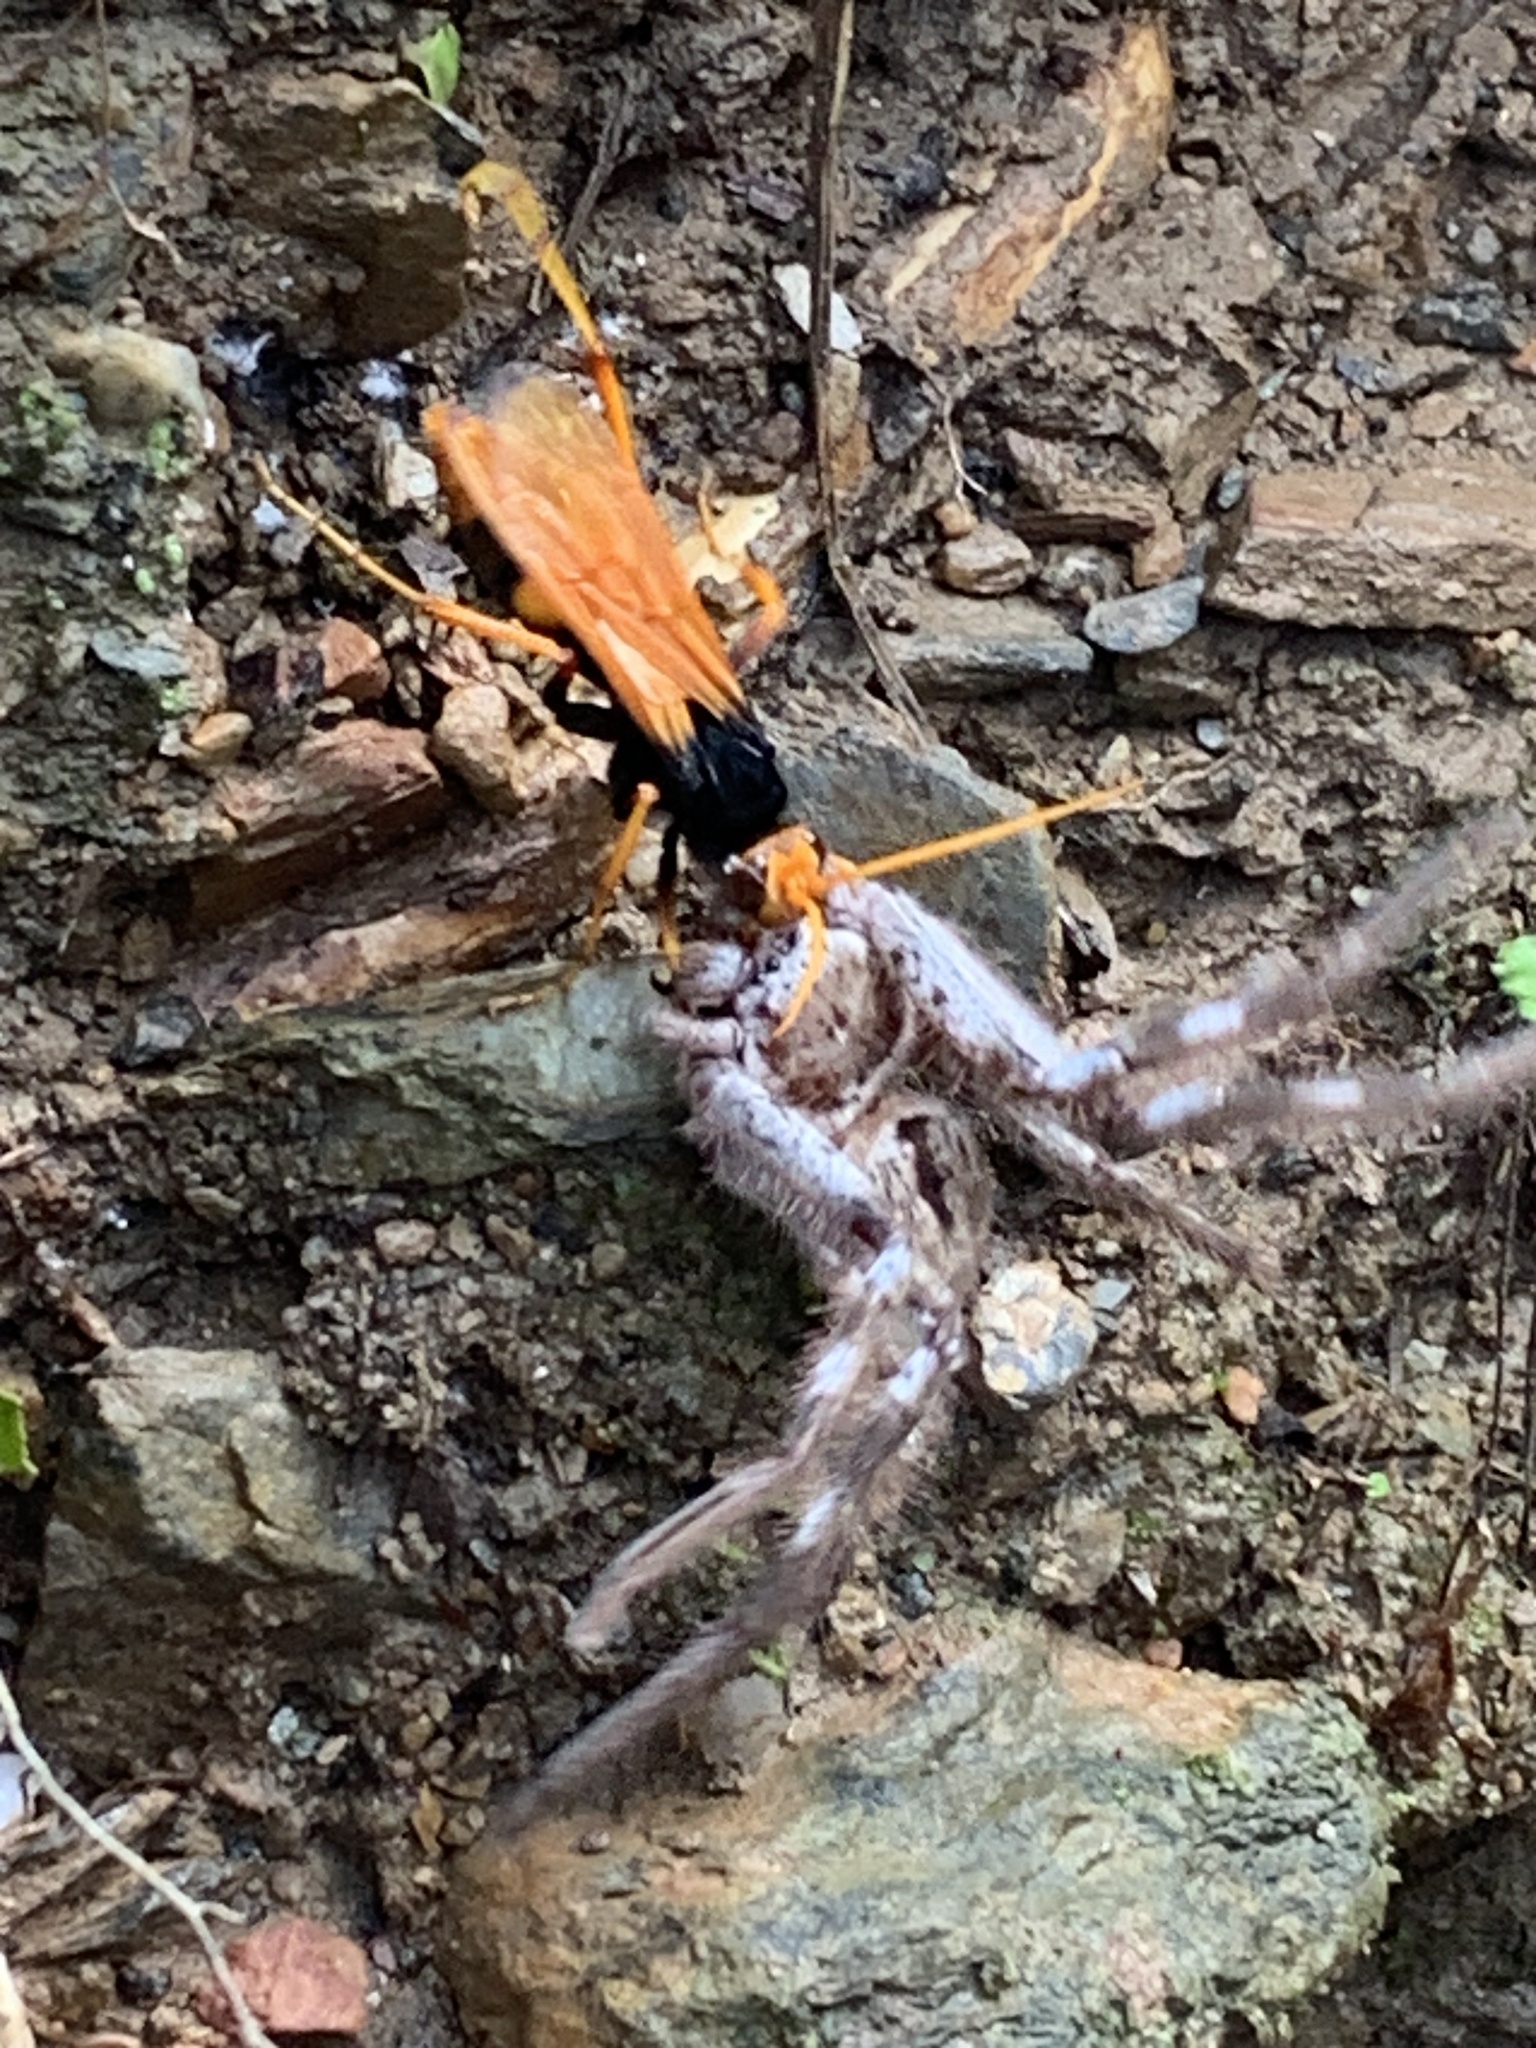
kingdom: Animalia
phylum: Arthropoda
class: Arachnida
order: Araneae
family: Sparassidae
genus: Holconia
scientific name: Holconia immanis
